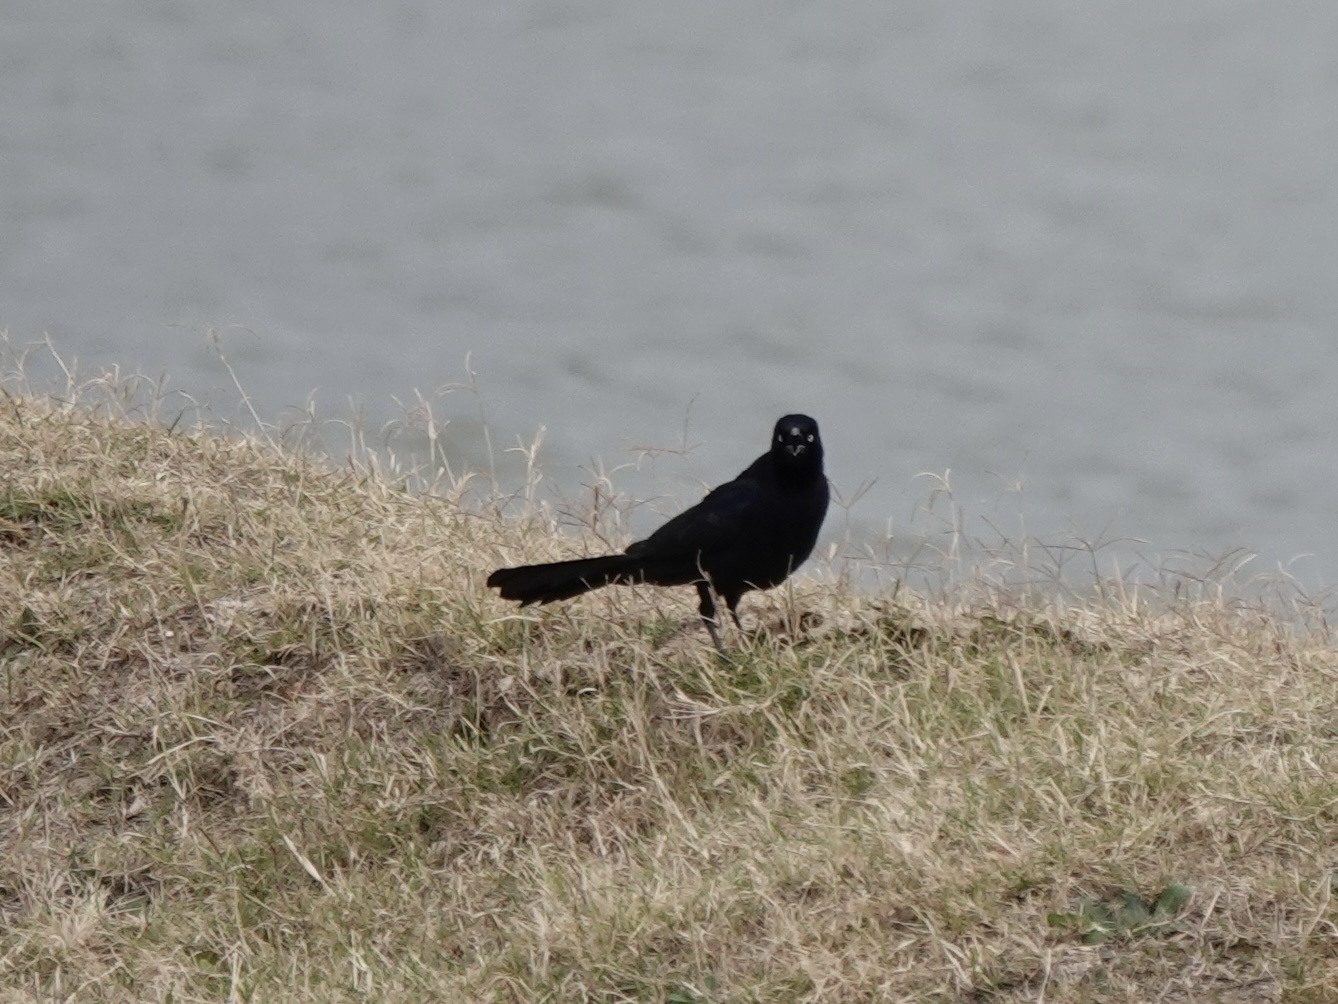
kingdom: Animalia
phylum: Chordata
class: Aves
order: Passeriformes
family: Icteridae
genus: Quiscalus
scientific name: Quiscalus mexicanus
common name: Great-tailed grackle
